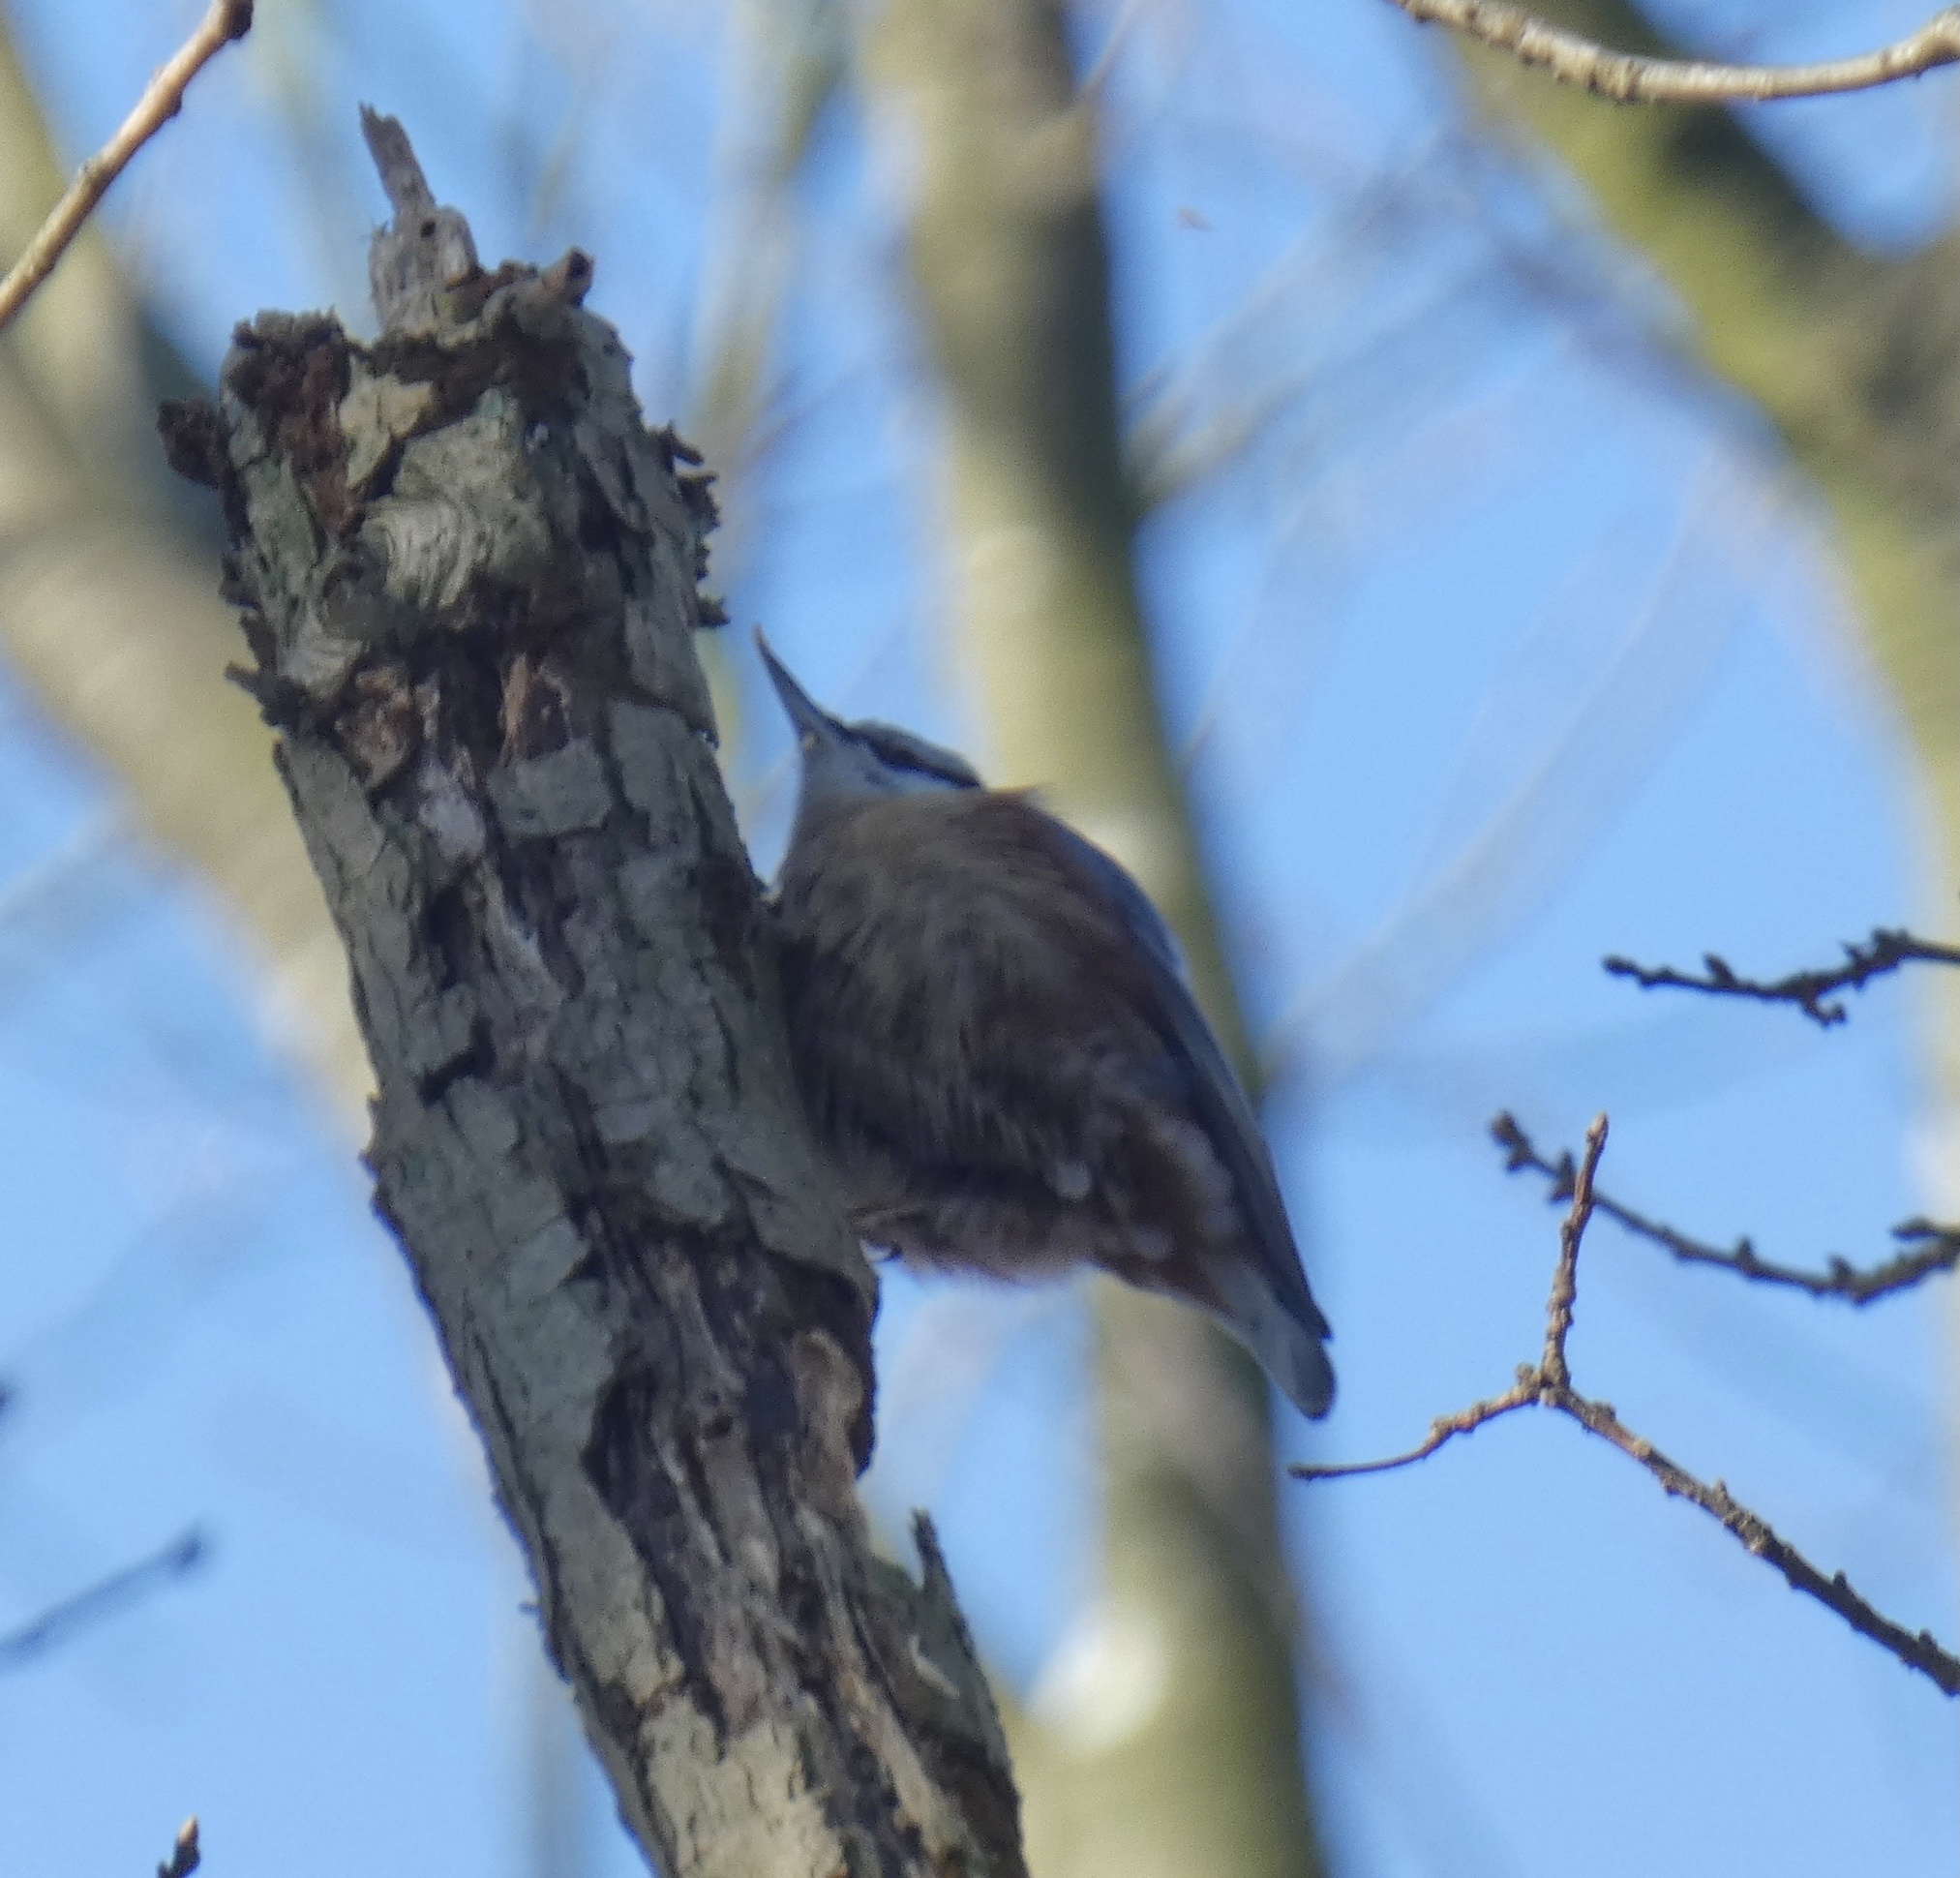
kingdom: Animalia
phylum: Chordata
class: Aves
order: Passeriformes
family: Sittidae
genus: Sitta
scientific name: Sitta europaea
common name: Eurasian nuthatch
